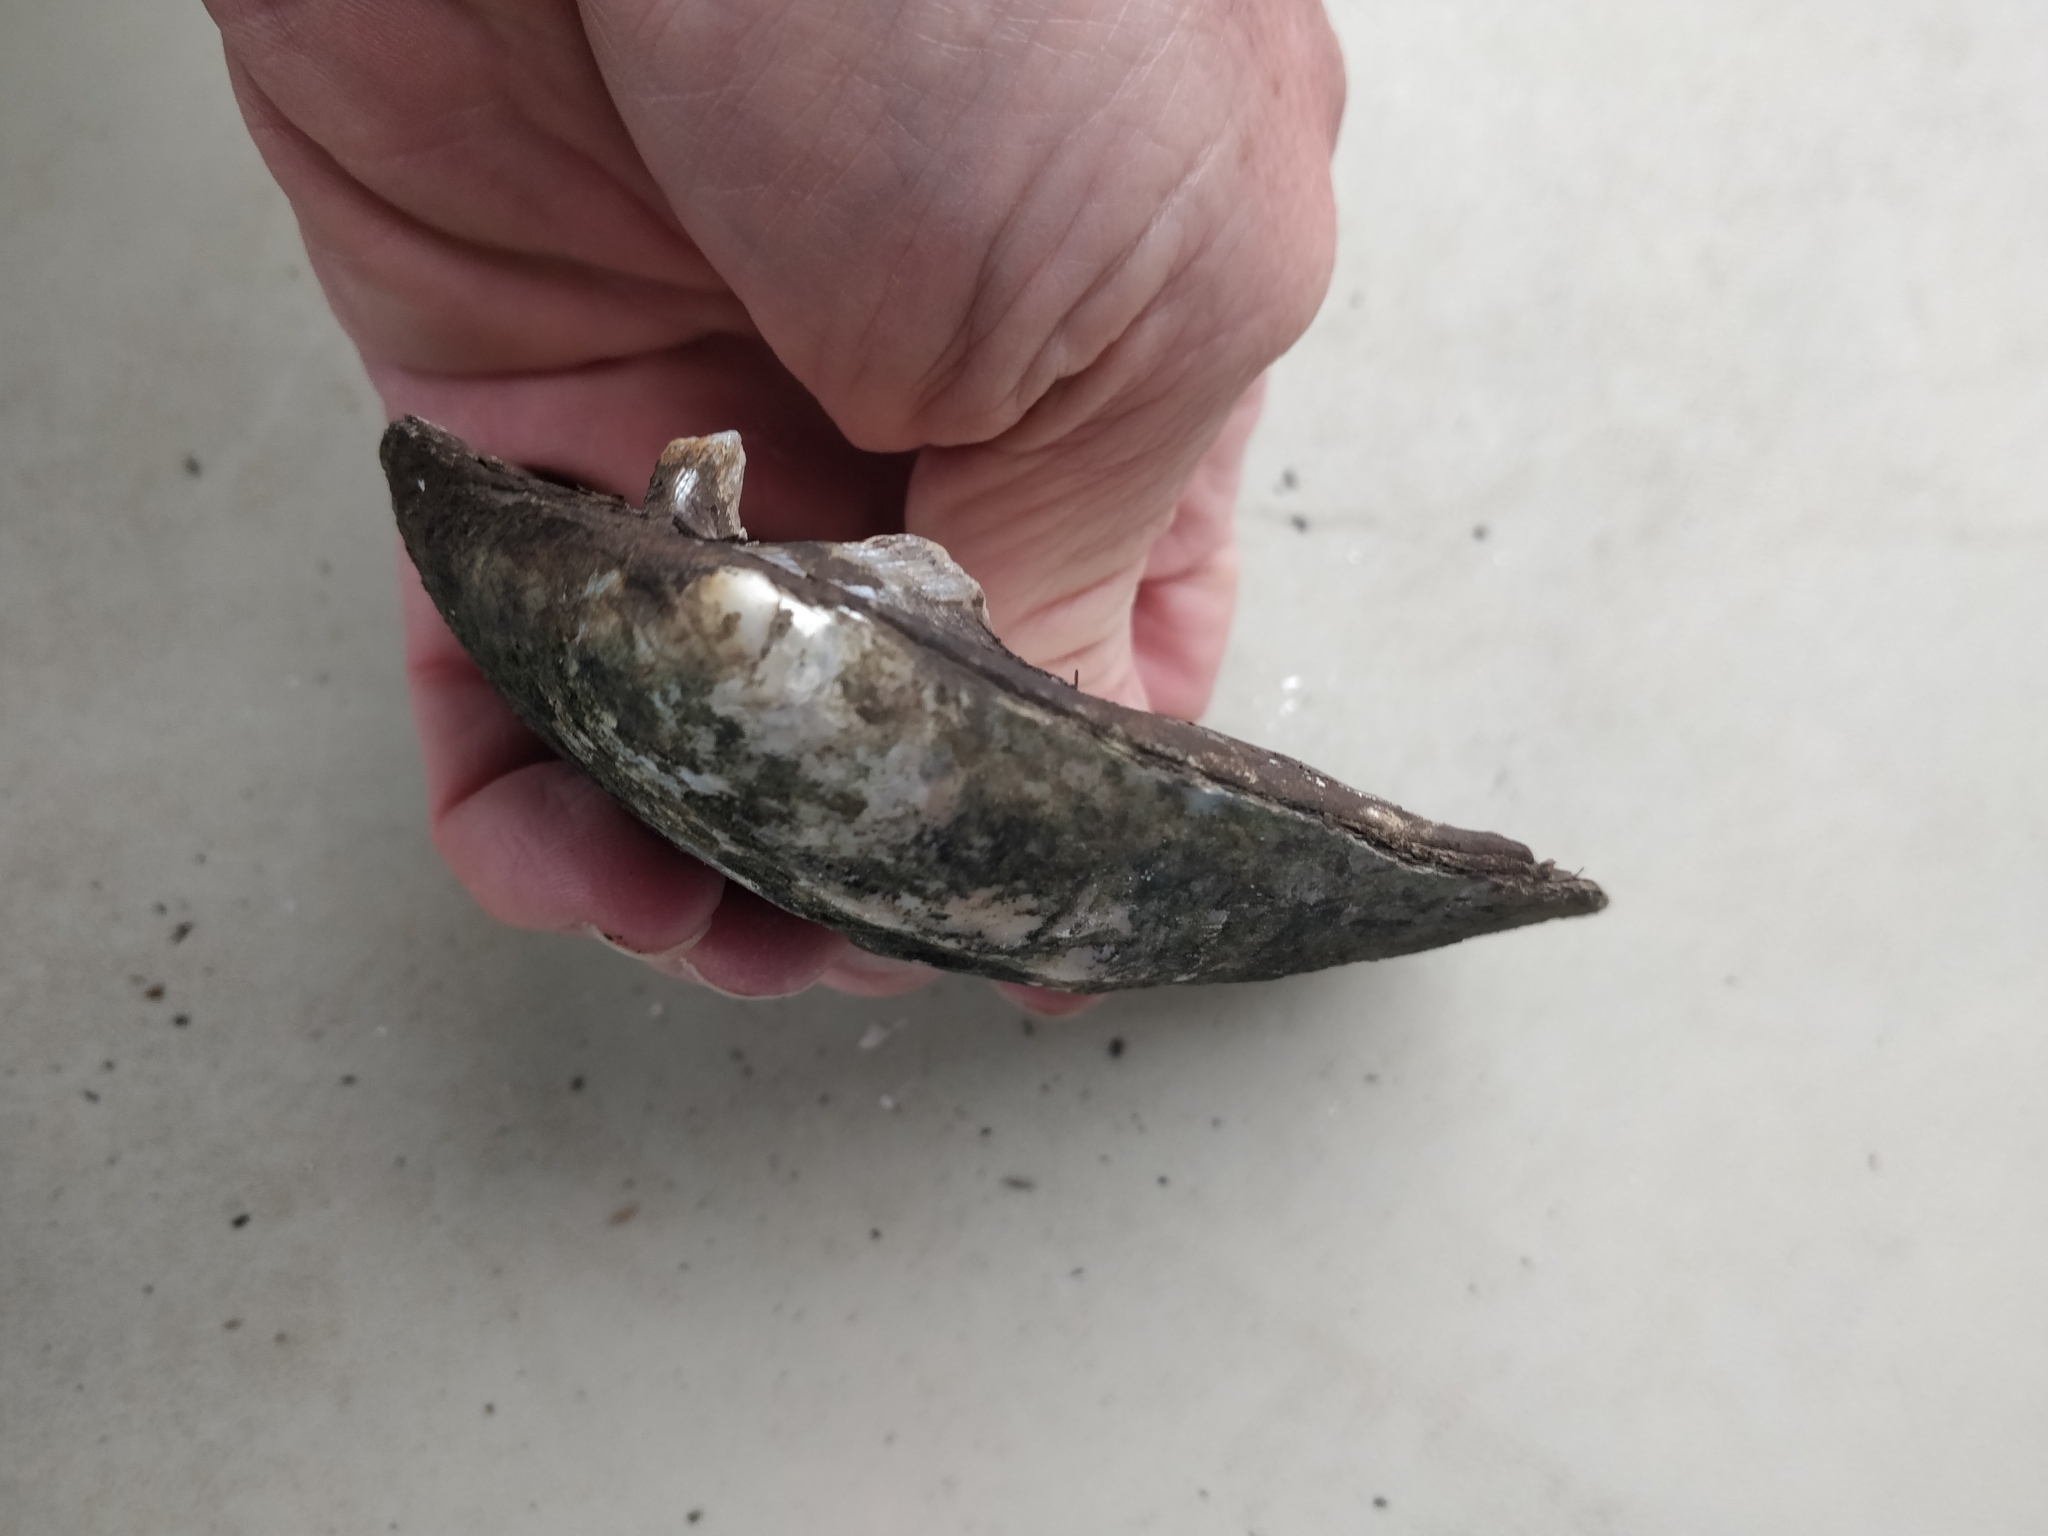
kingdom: Animalia
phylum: Mollusca
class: Bivalvia
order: Unionida
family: Unionidae
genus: Amblema
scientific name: Amblema plicata
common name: Threeridge
